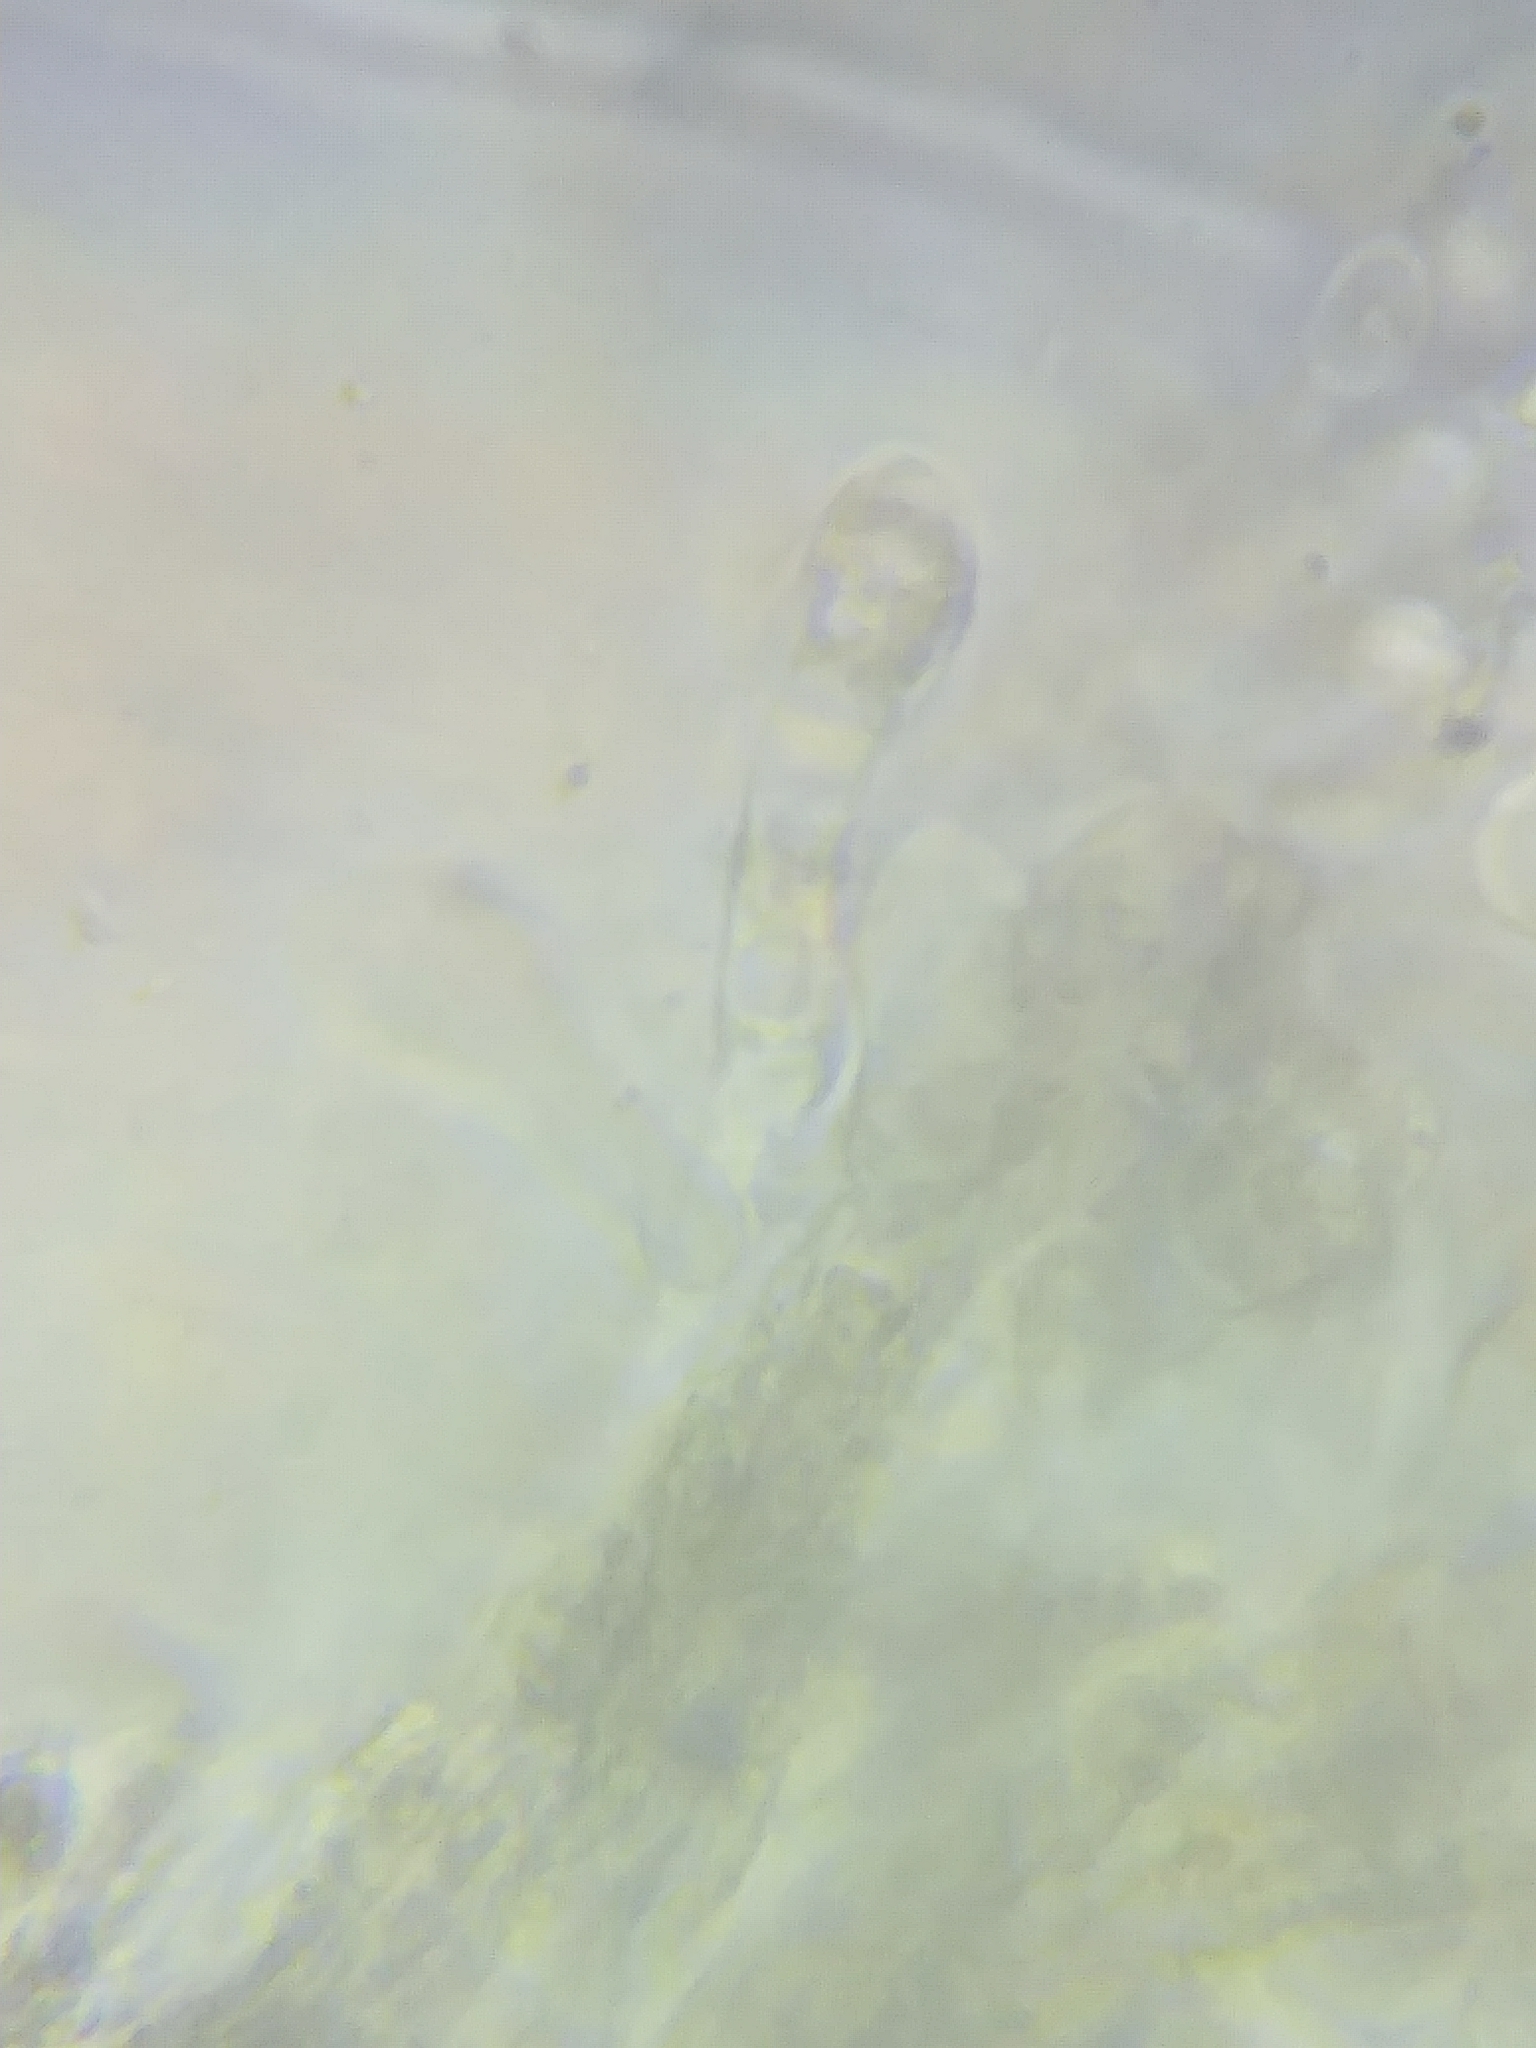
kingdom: Fungi
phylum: Basidiomycota
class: Agaricomycetes
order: Russulales
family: Albatrellaceae
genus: Neoalbatrellus
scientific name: Neoalbatrellus caeruleoporus
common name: Blue polypore
